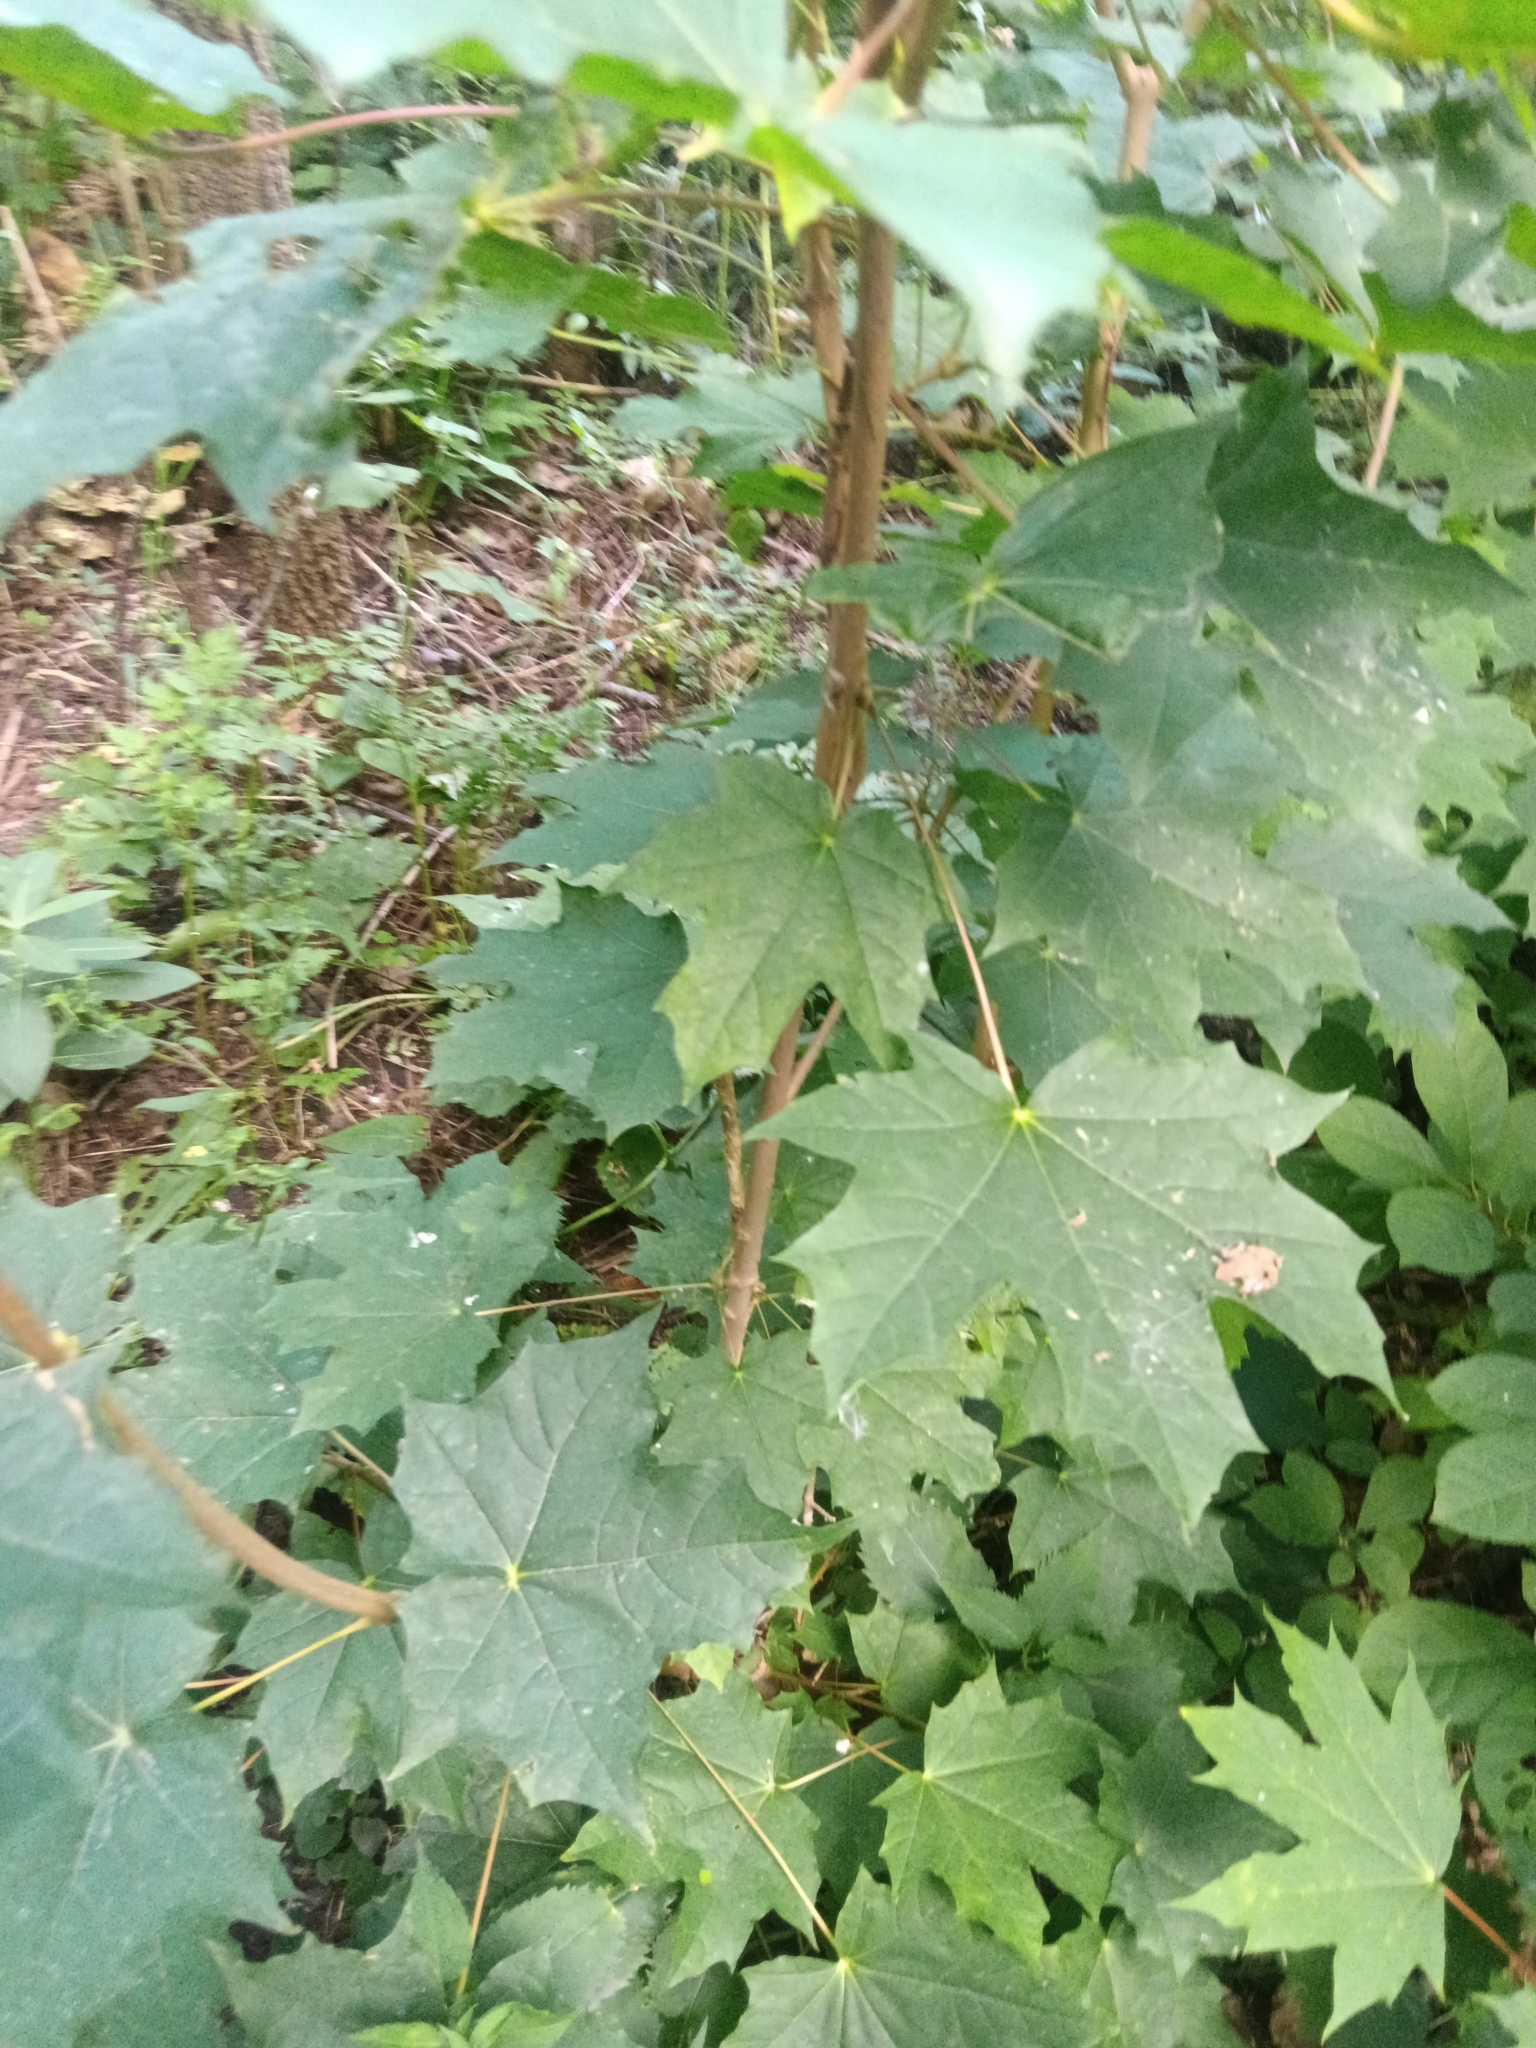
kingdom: Plantae
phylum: Tracheophyta
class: Magnoliopsida
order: Sapindales
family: Sapindaceae
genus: Acer
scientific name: Acer platanoides
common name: Norway maple
